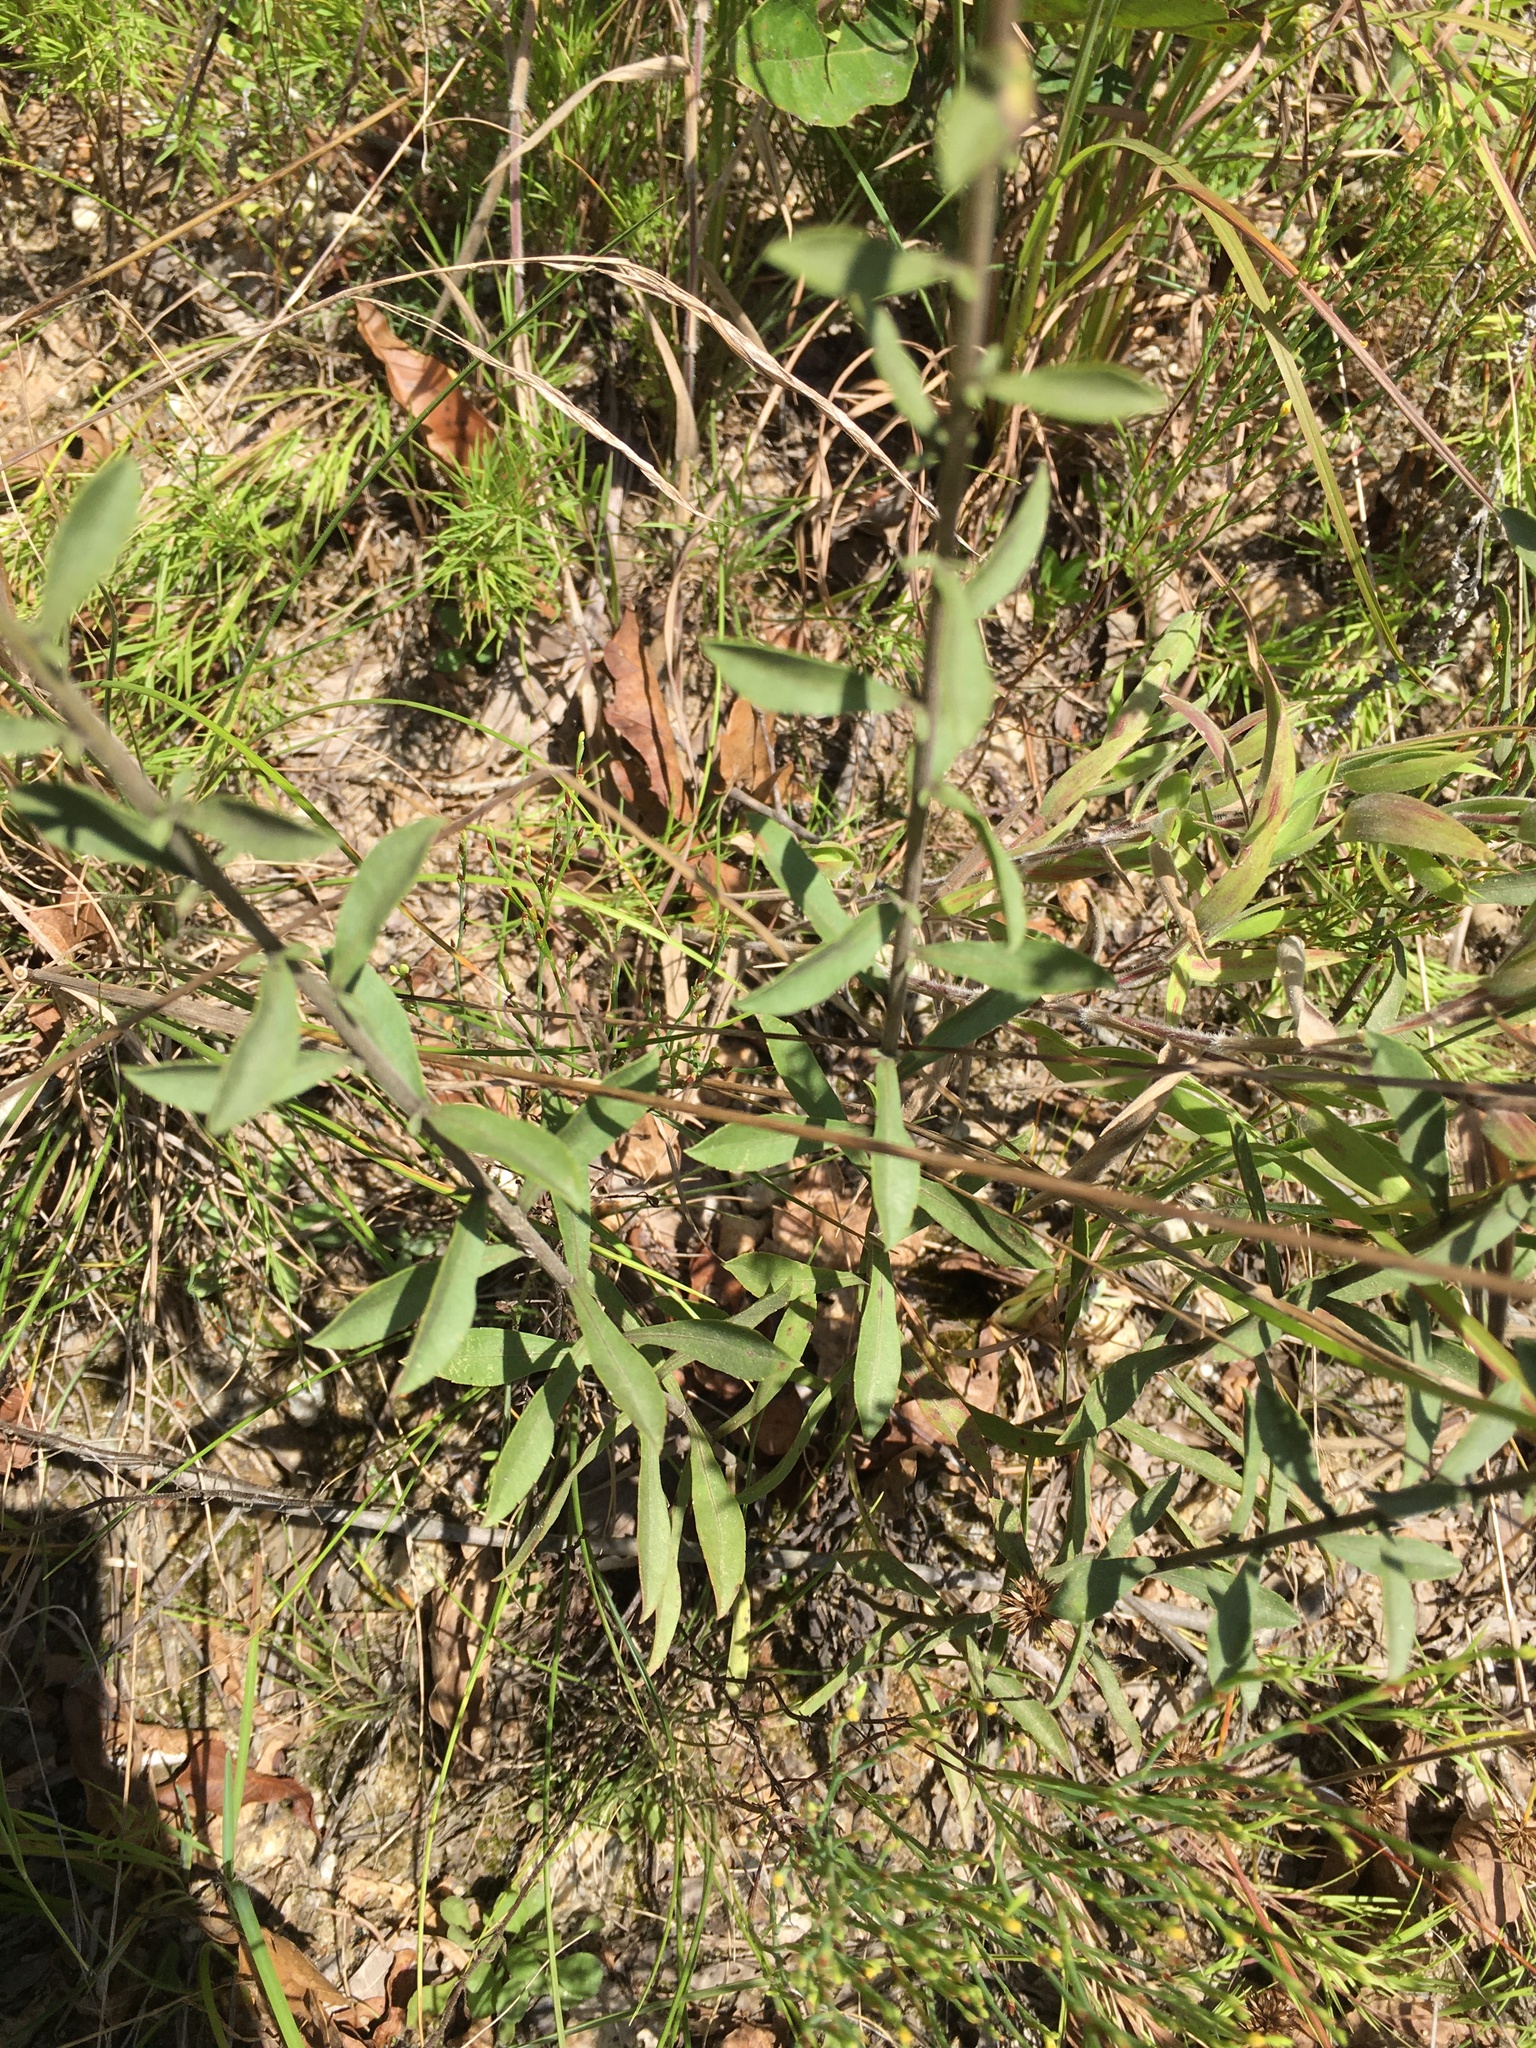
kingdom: Plantae
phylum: Tracheophyta
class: Magnoliopsida
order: Asterales
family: Asteraceae
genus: Solidago
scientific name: Solidago nemoralis
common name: Grey goldenrod
